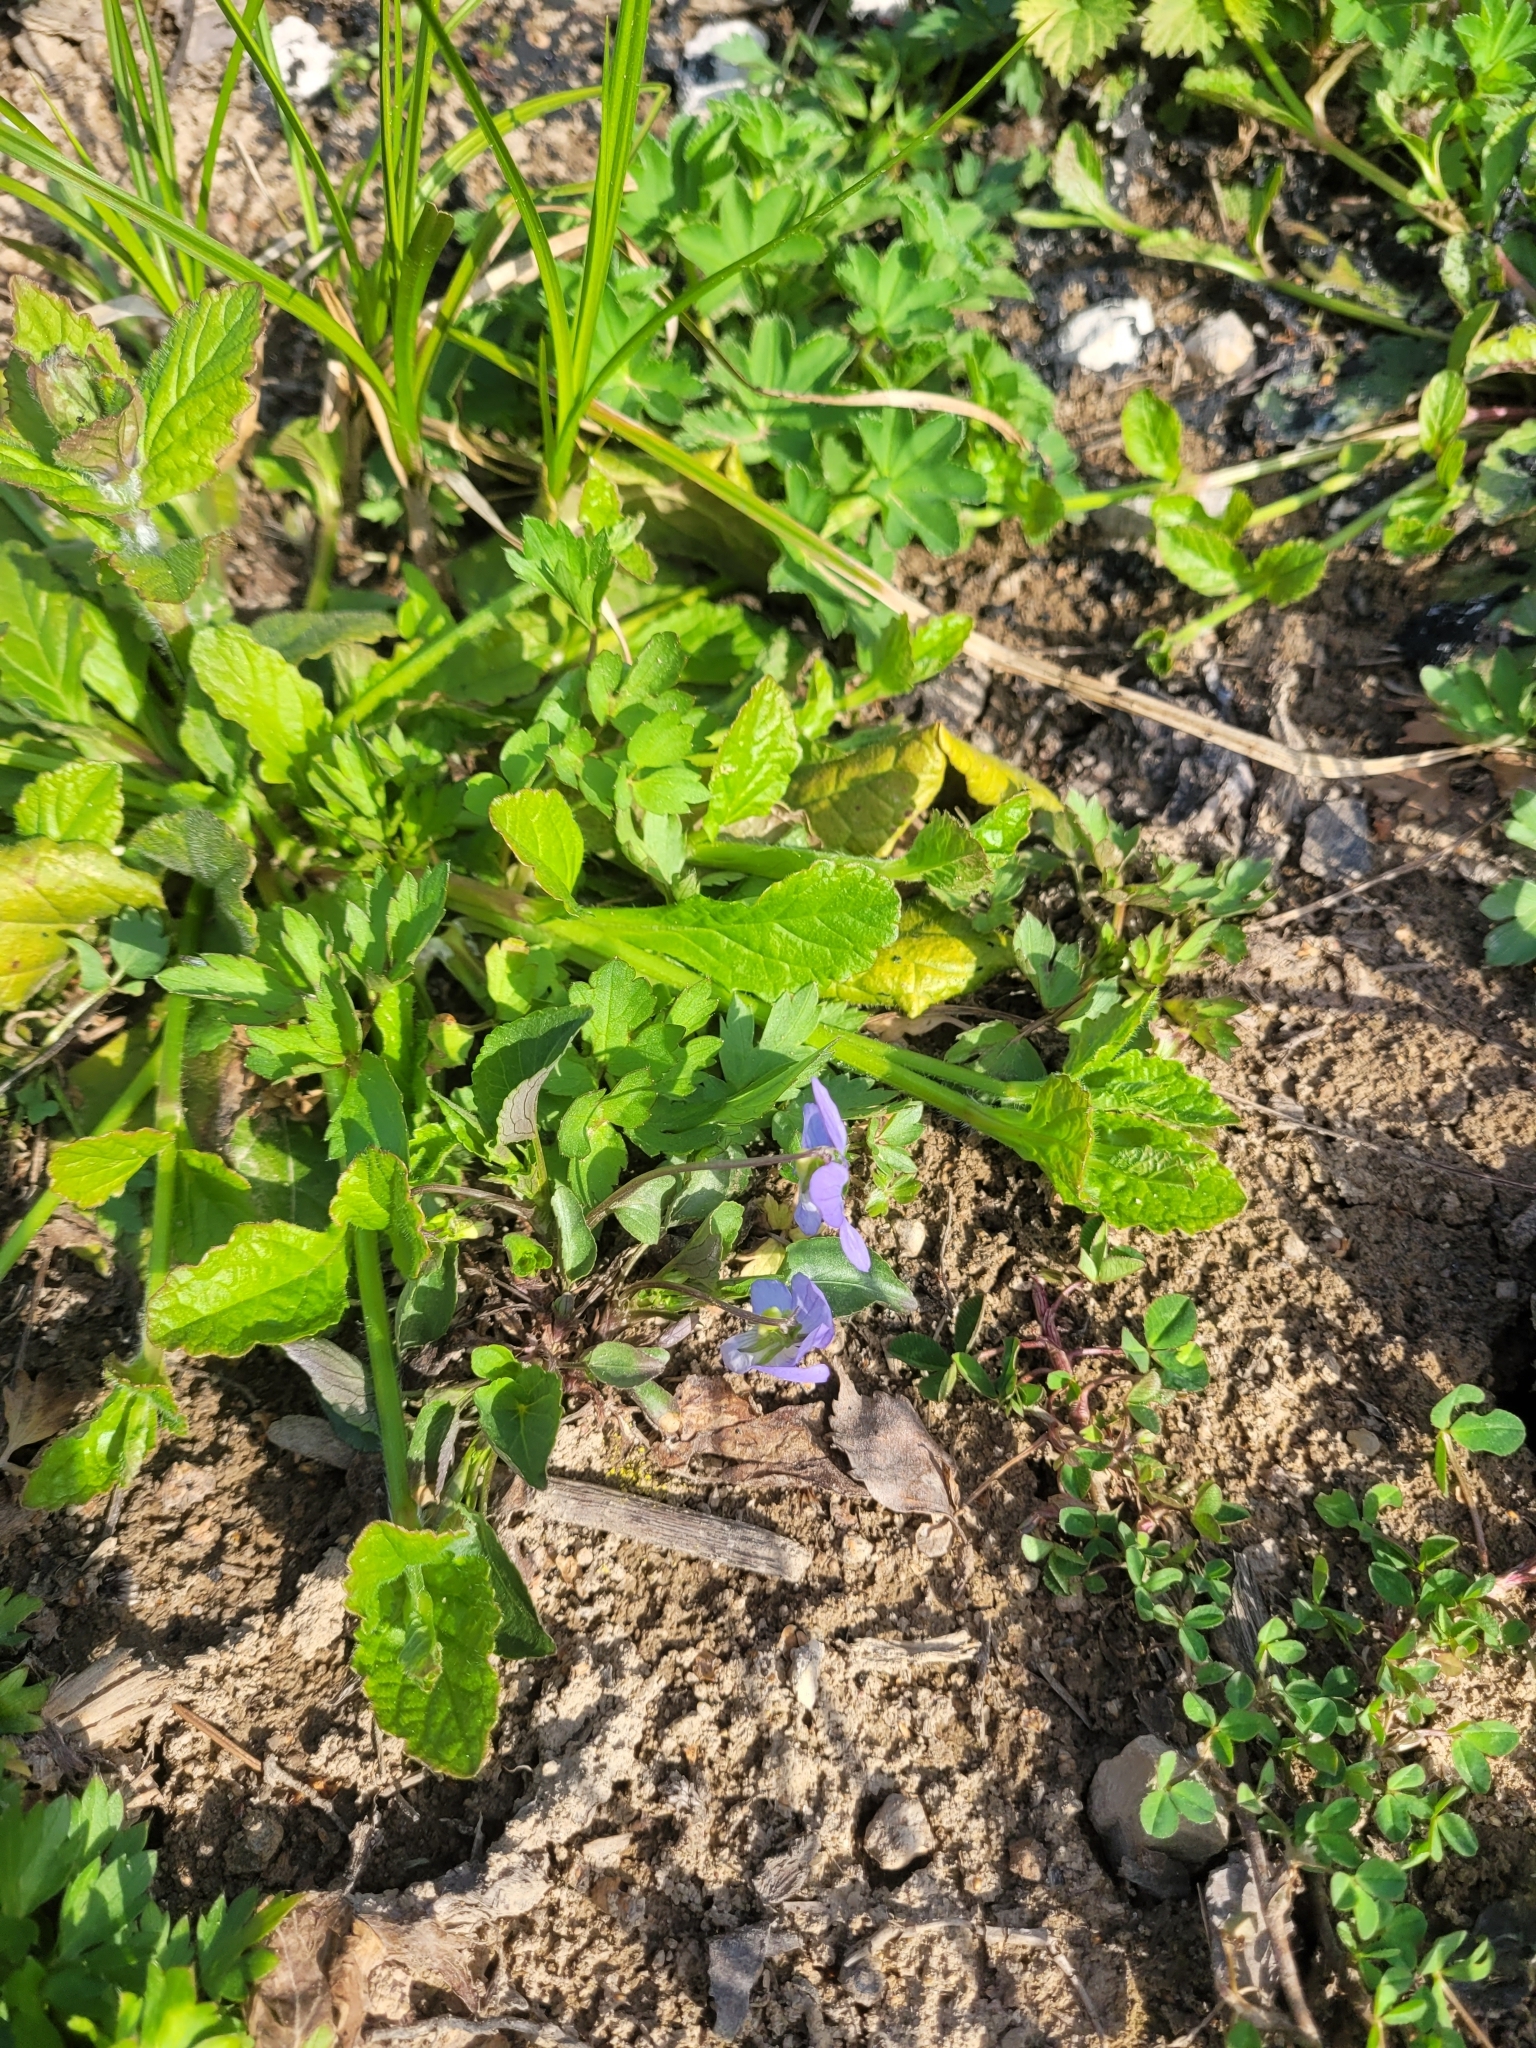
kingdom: Plantae
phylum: Tracheophyta
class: Magnoliopsida
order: Malpighiales
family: Violaceae
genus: Viola
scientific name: Viola canina
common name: Heath dog-violet
